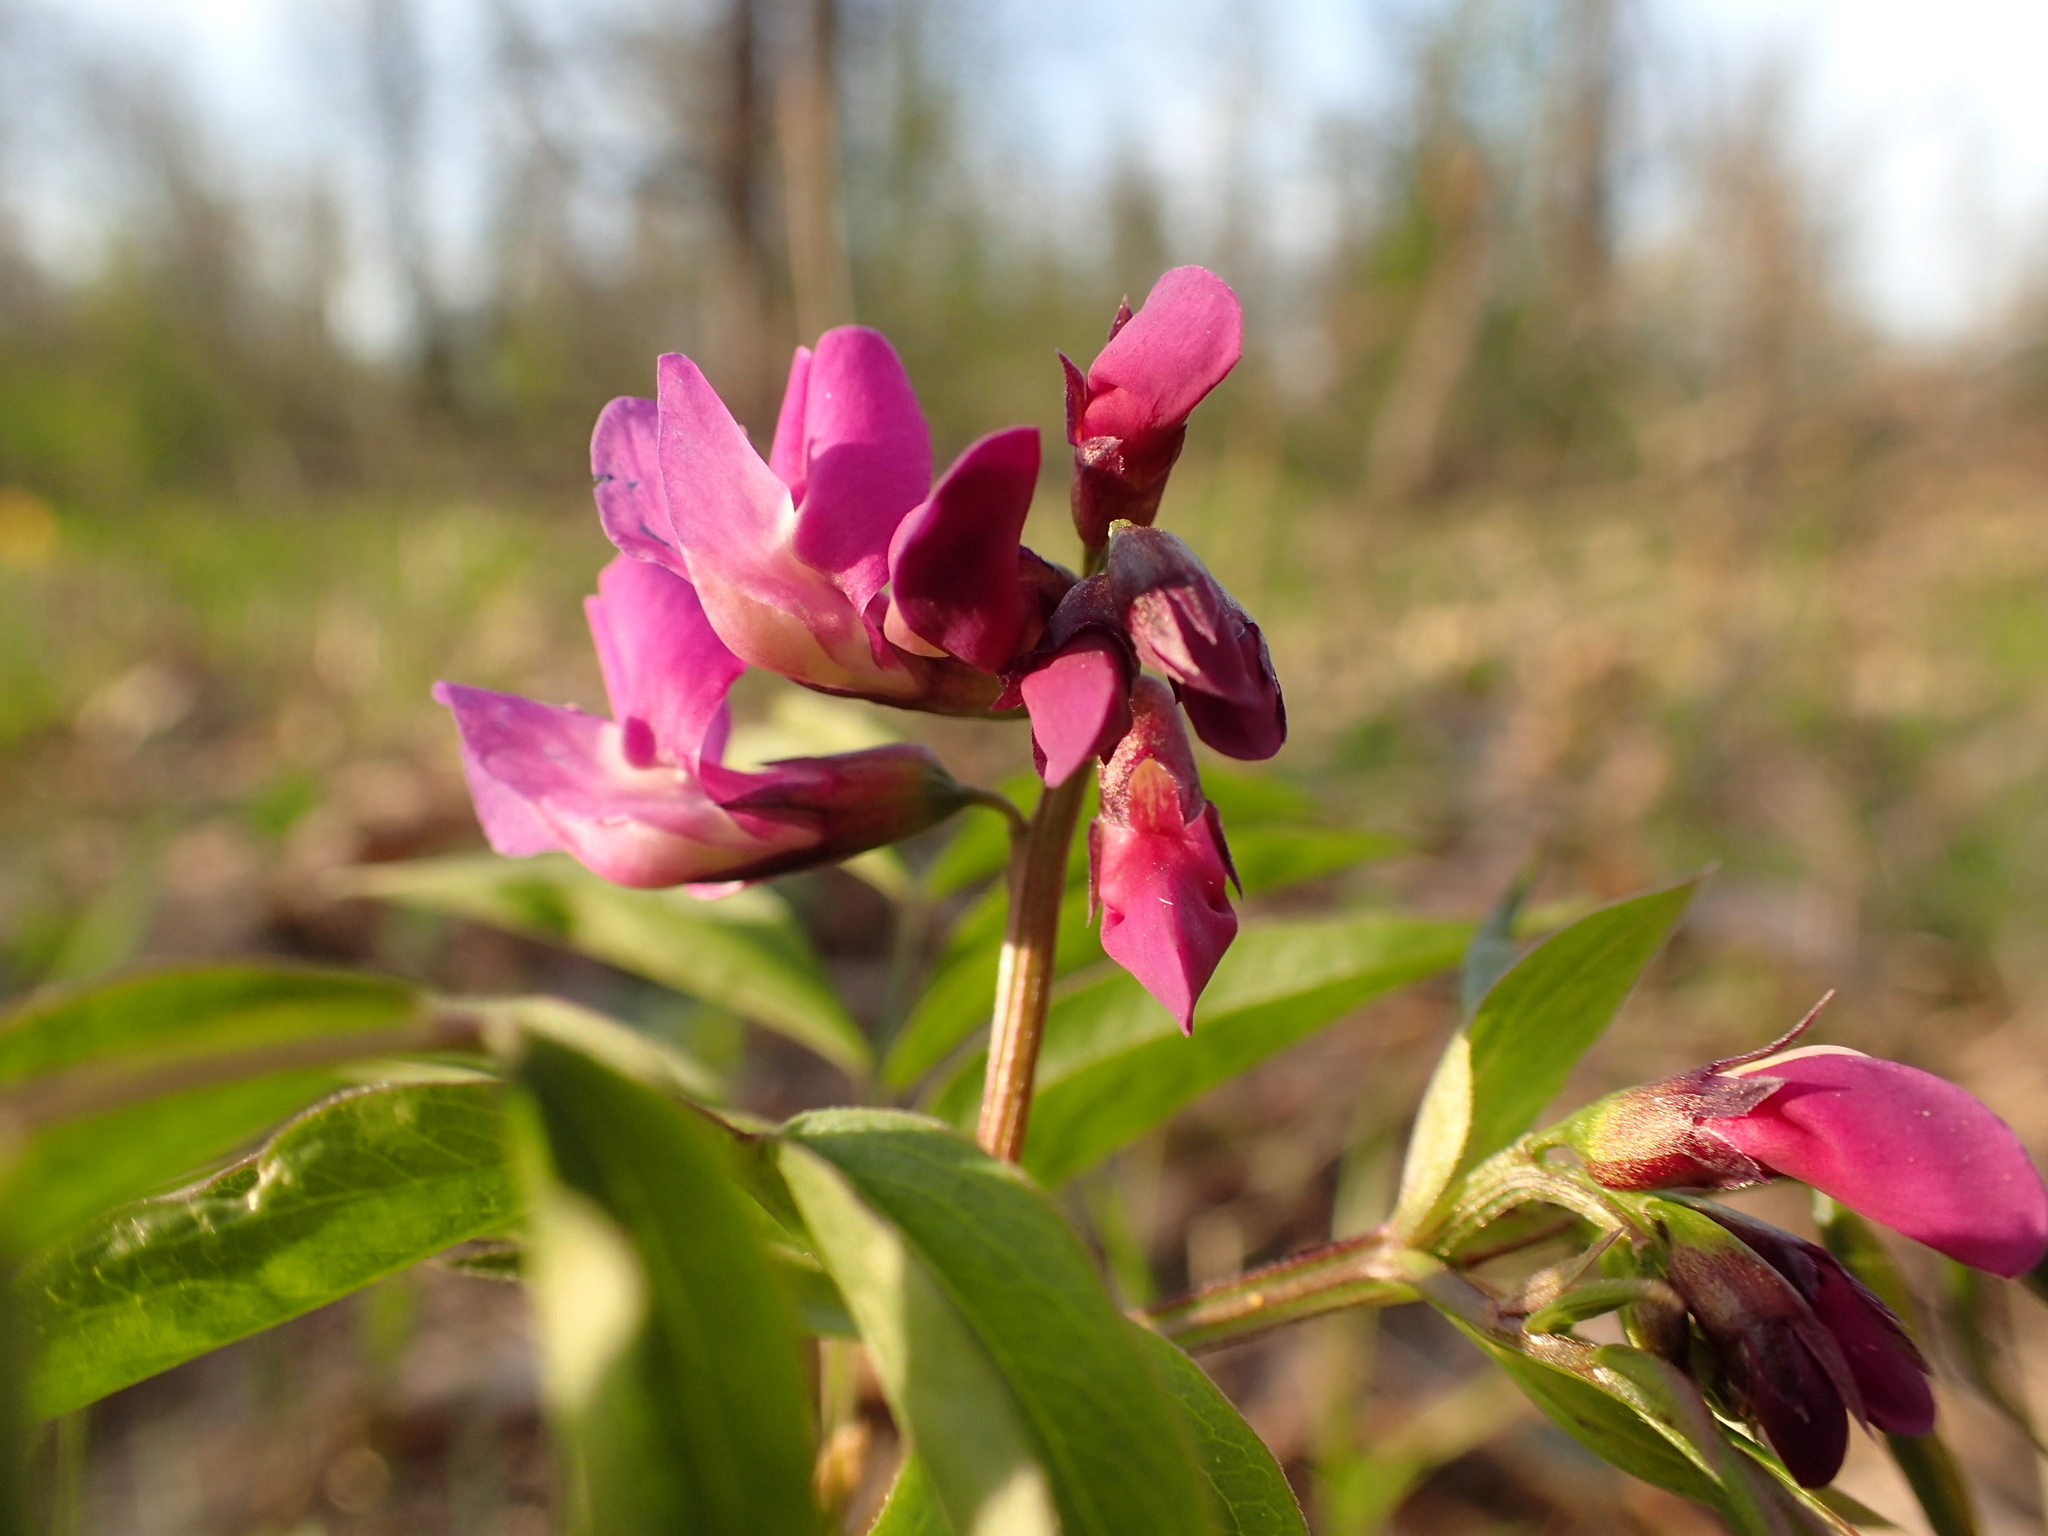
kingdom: Plantae
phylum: Tracheophyta
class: Magnoliopsida
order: Fabales
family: Fabaceae
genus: Lathyrus
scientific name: Lathyrus vernus
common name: Spring pea
